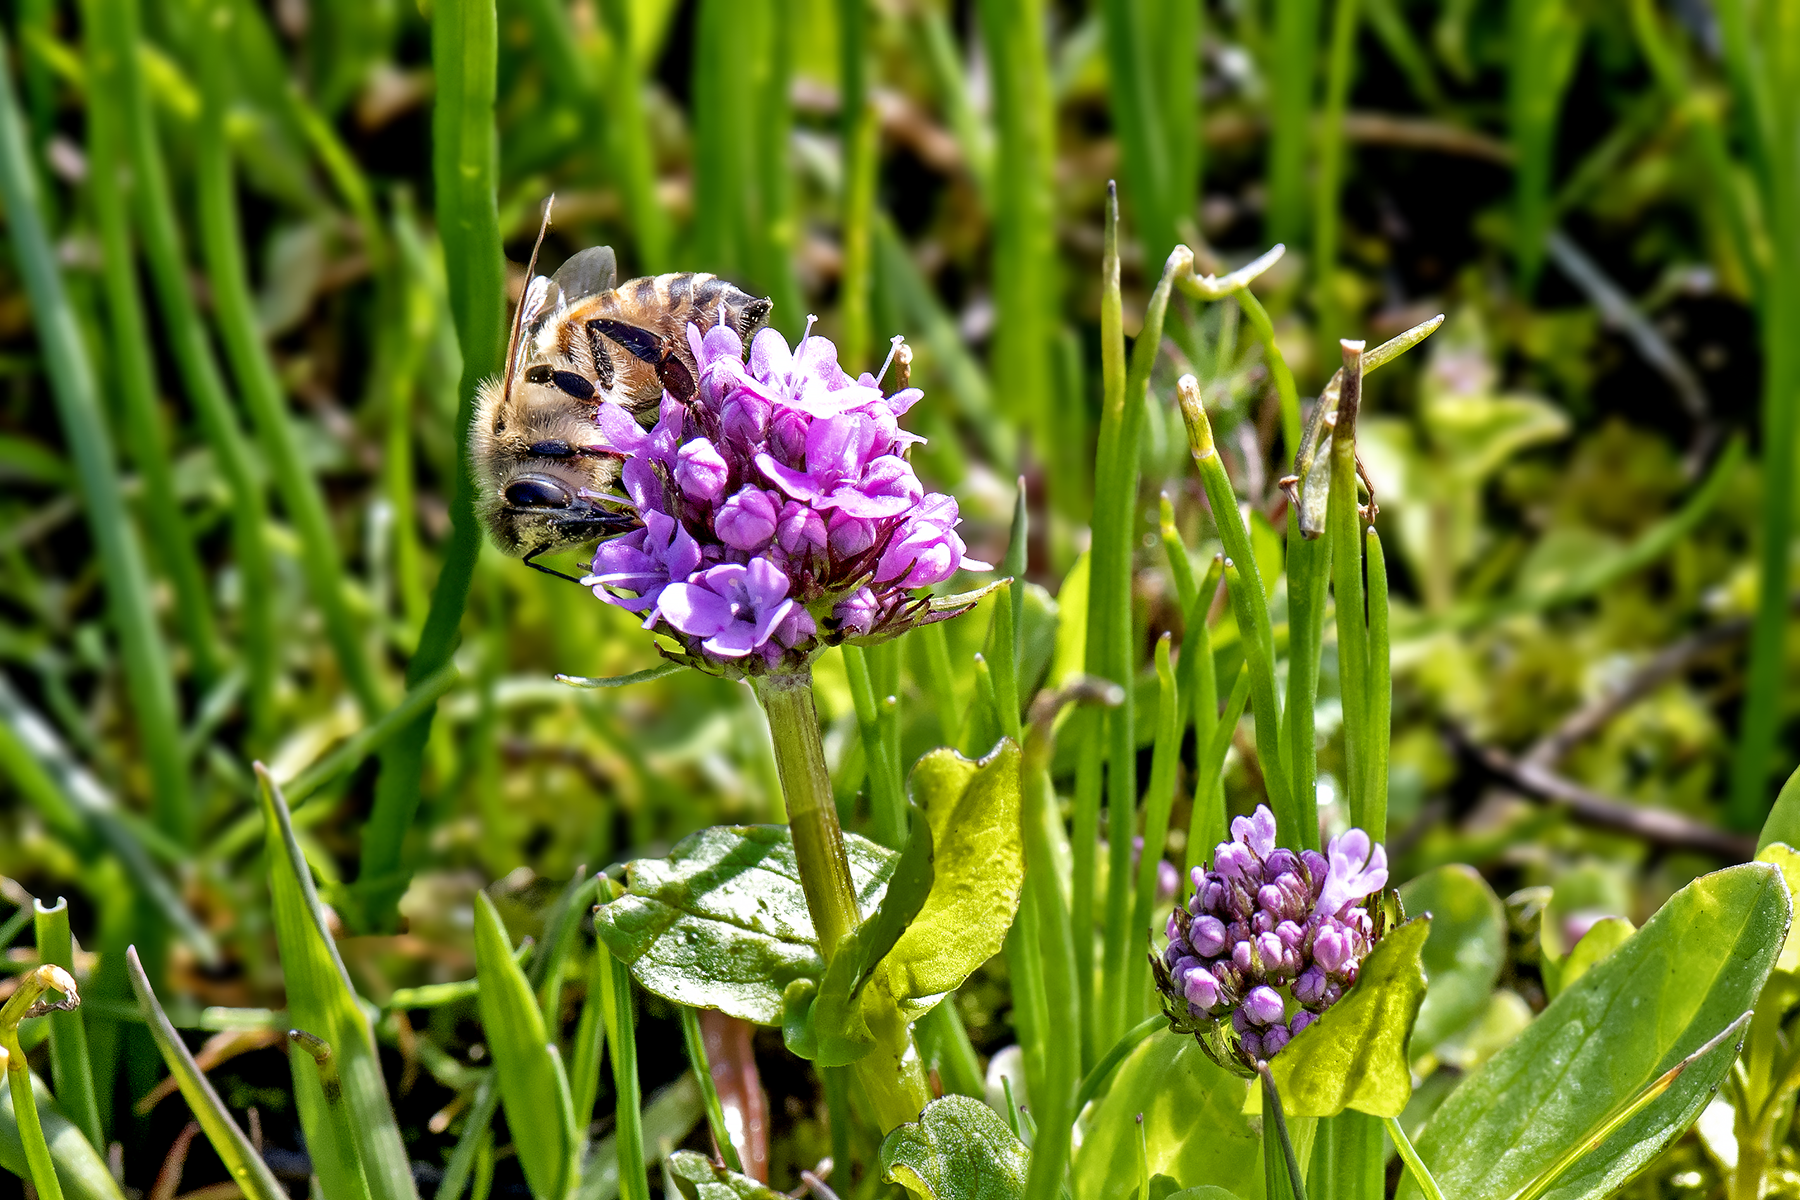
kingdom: Animalia
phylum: Arthropoda
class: Insecta
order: Hymenoptera
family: Apidae
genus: Apis
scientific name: Apis mellifera
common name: Honey bee
